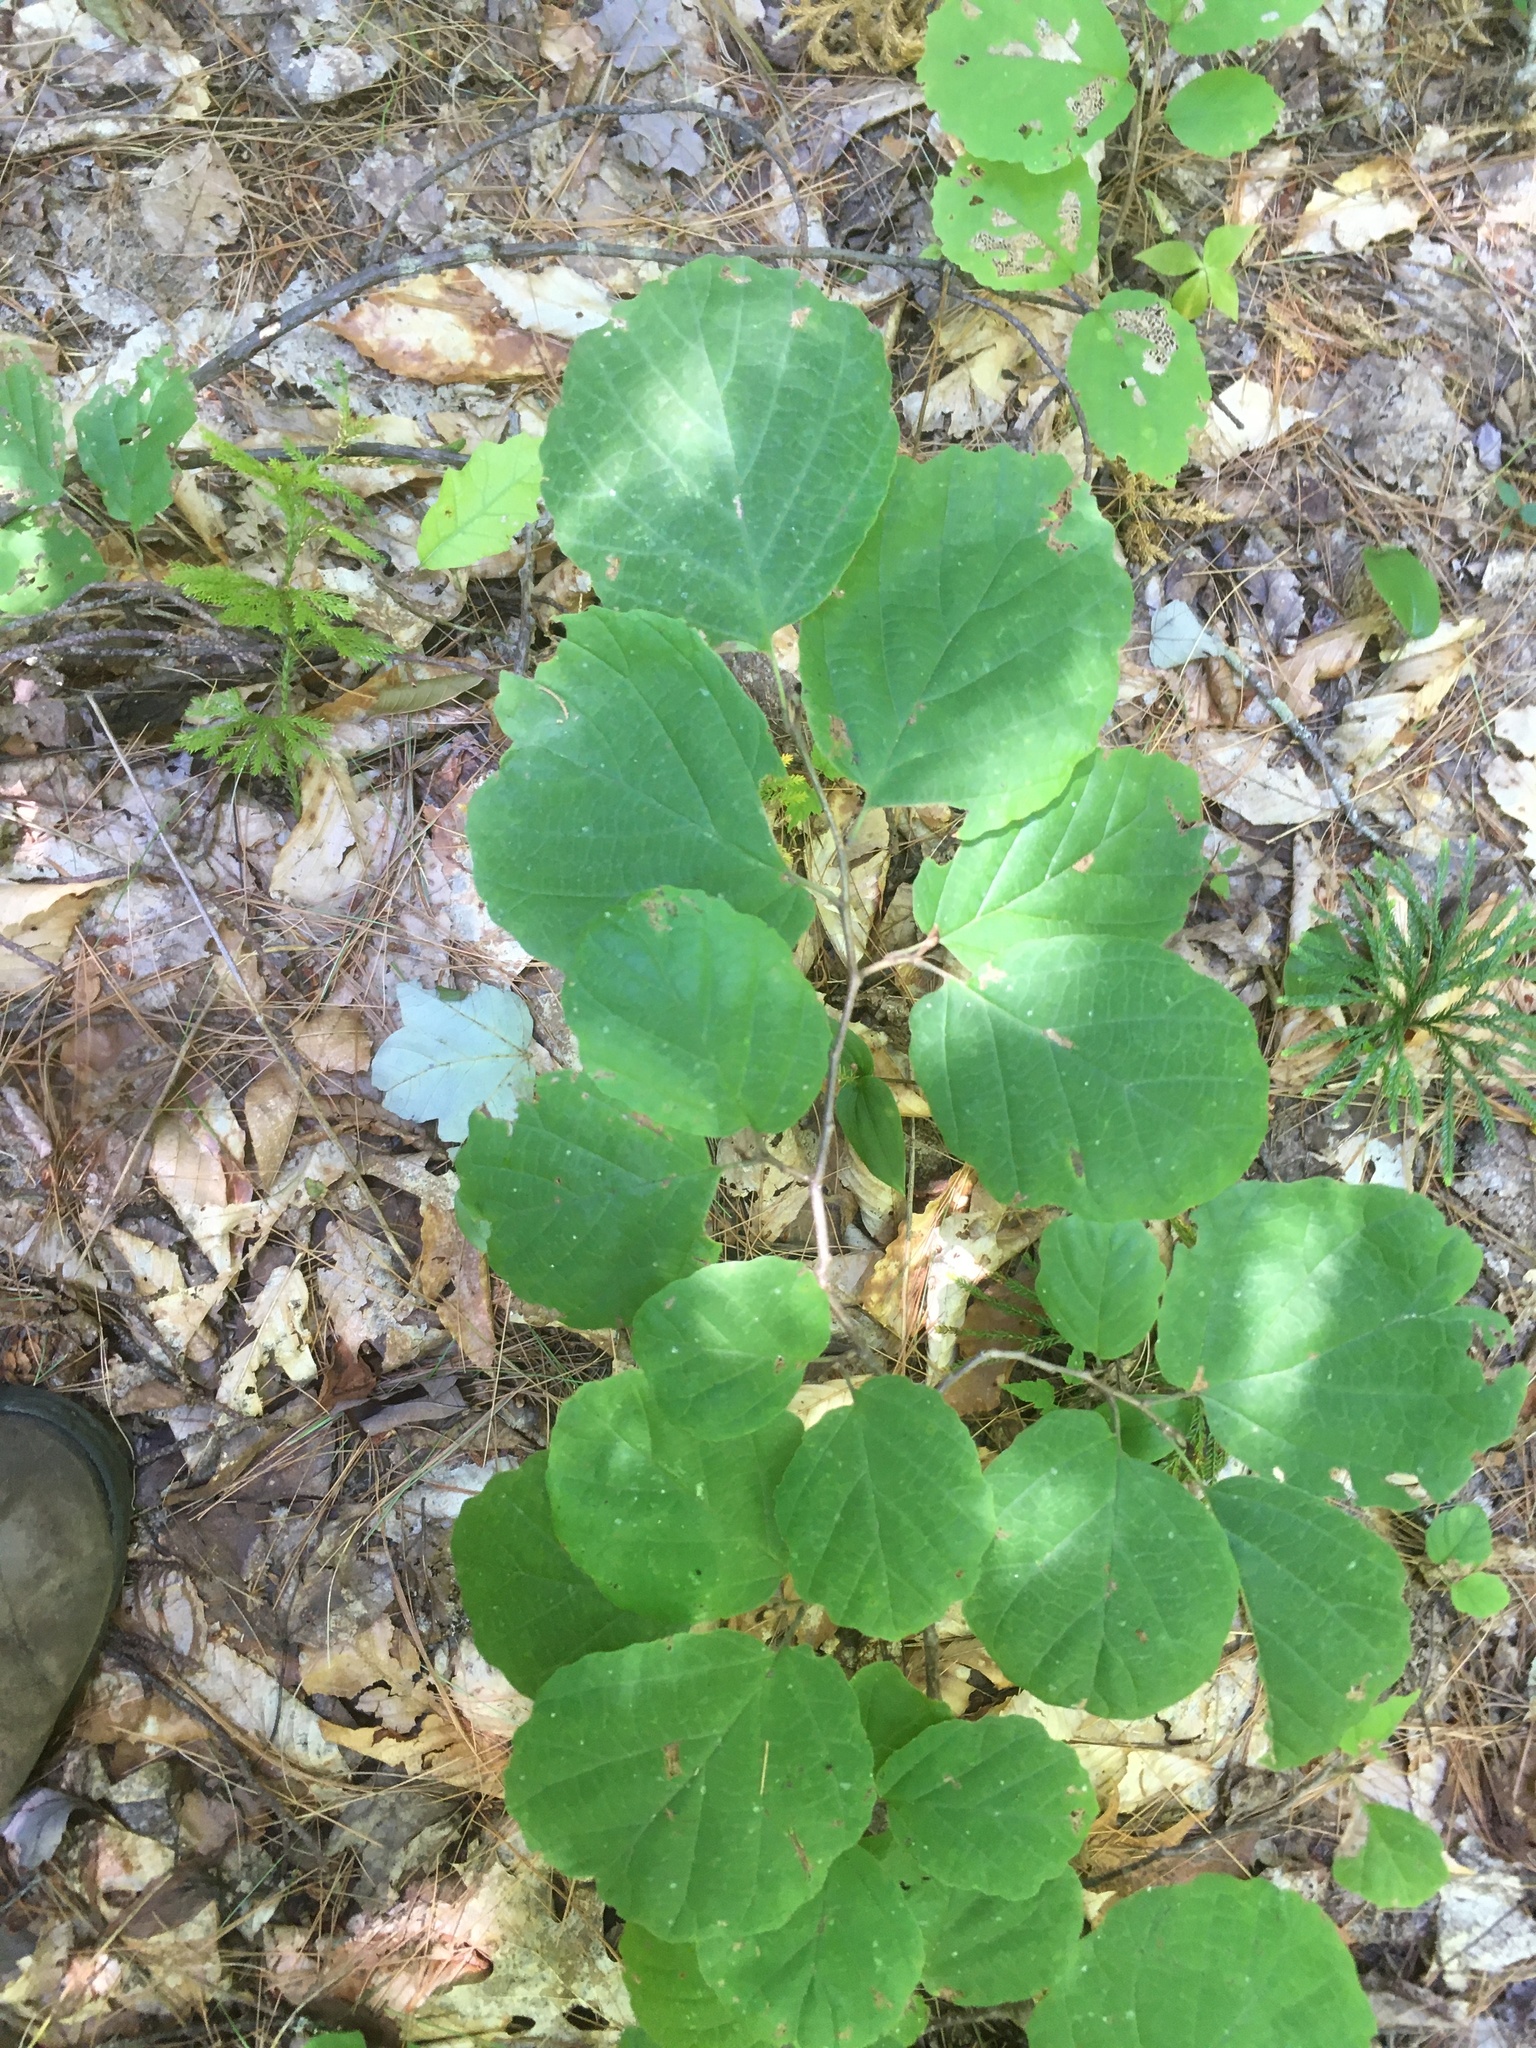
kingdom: Plantae
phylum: Tracheophyta
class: Magnoliopsida
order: Saxifragales
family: Hamamelidaceae
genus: Hamamelis
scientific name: Hamamelis virginiana
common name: Witch-hazel
